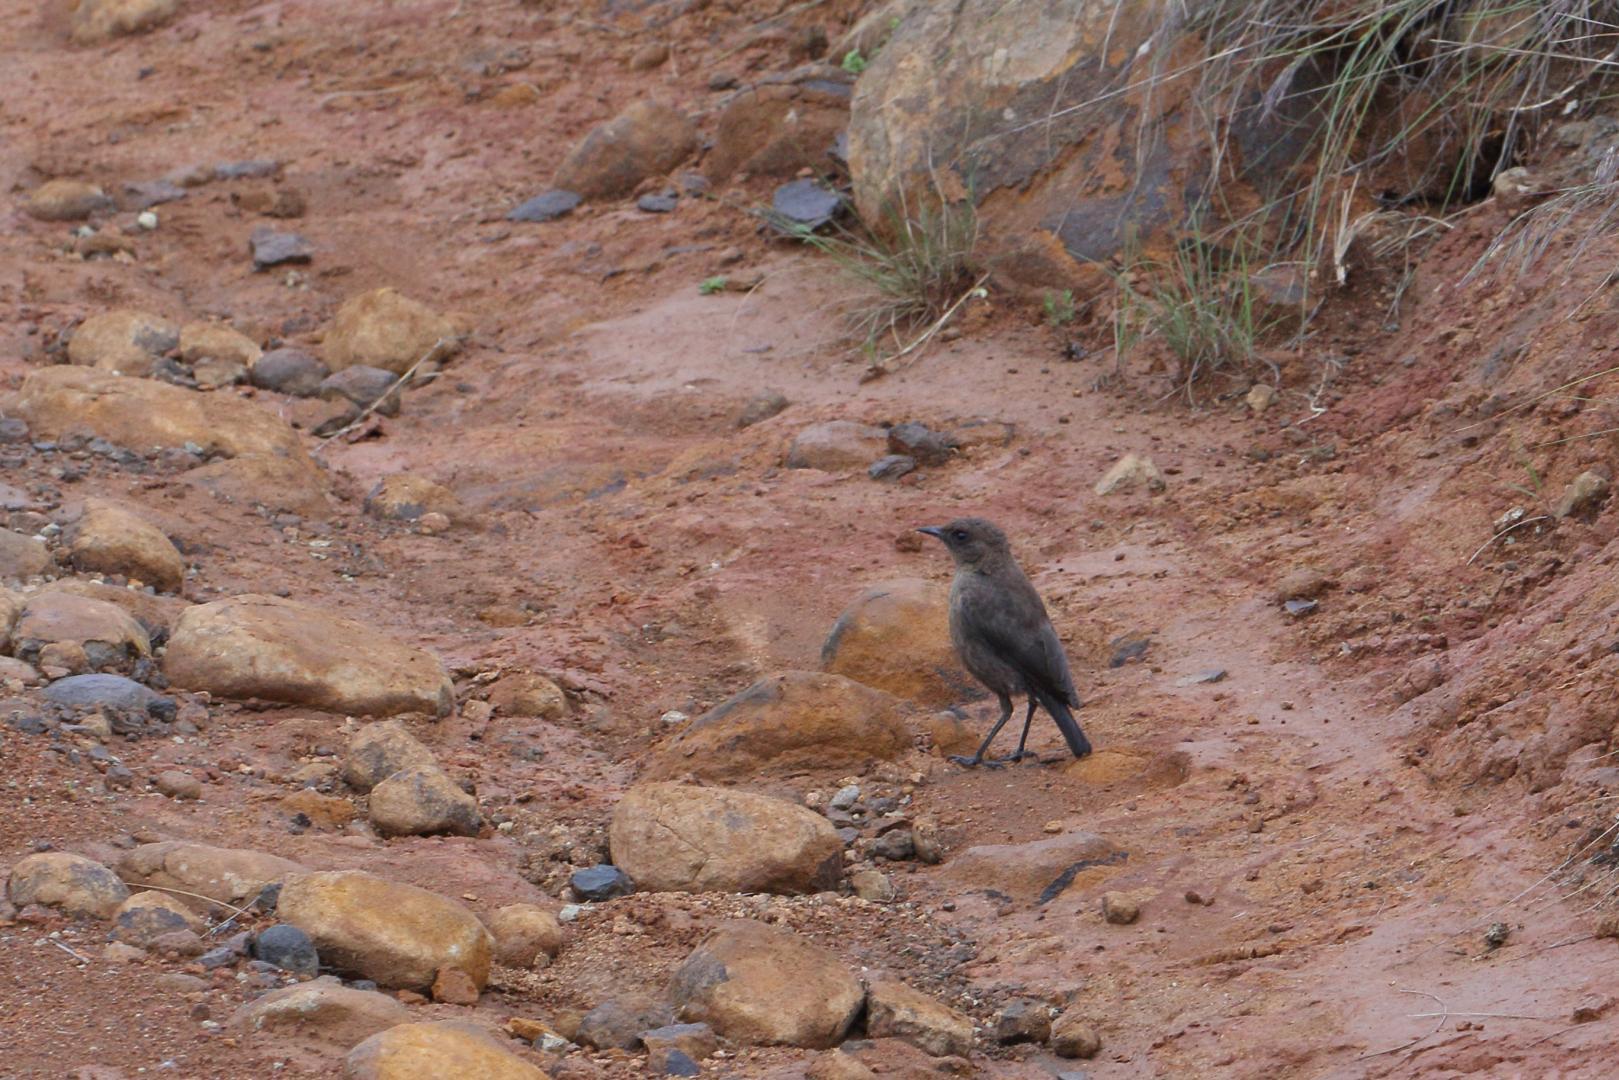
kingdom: Animalia
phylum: Chordata
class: Aves
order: Passeriformes
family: Muscicapidae
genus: Myrmecocichla
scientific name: Myrmecocichla formicivora
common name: Ant-eating chat
